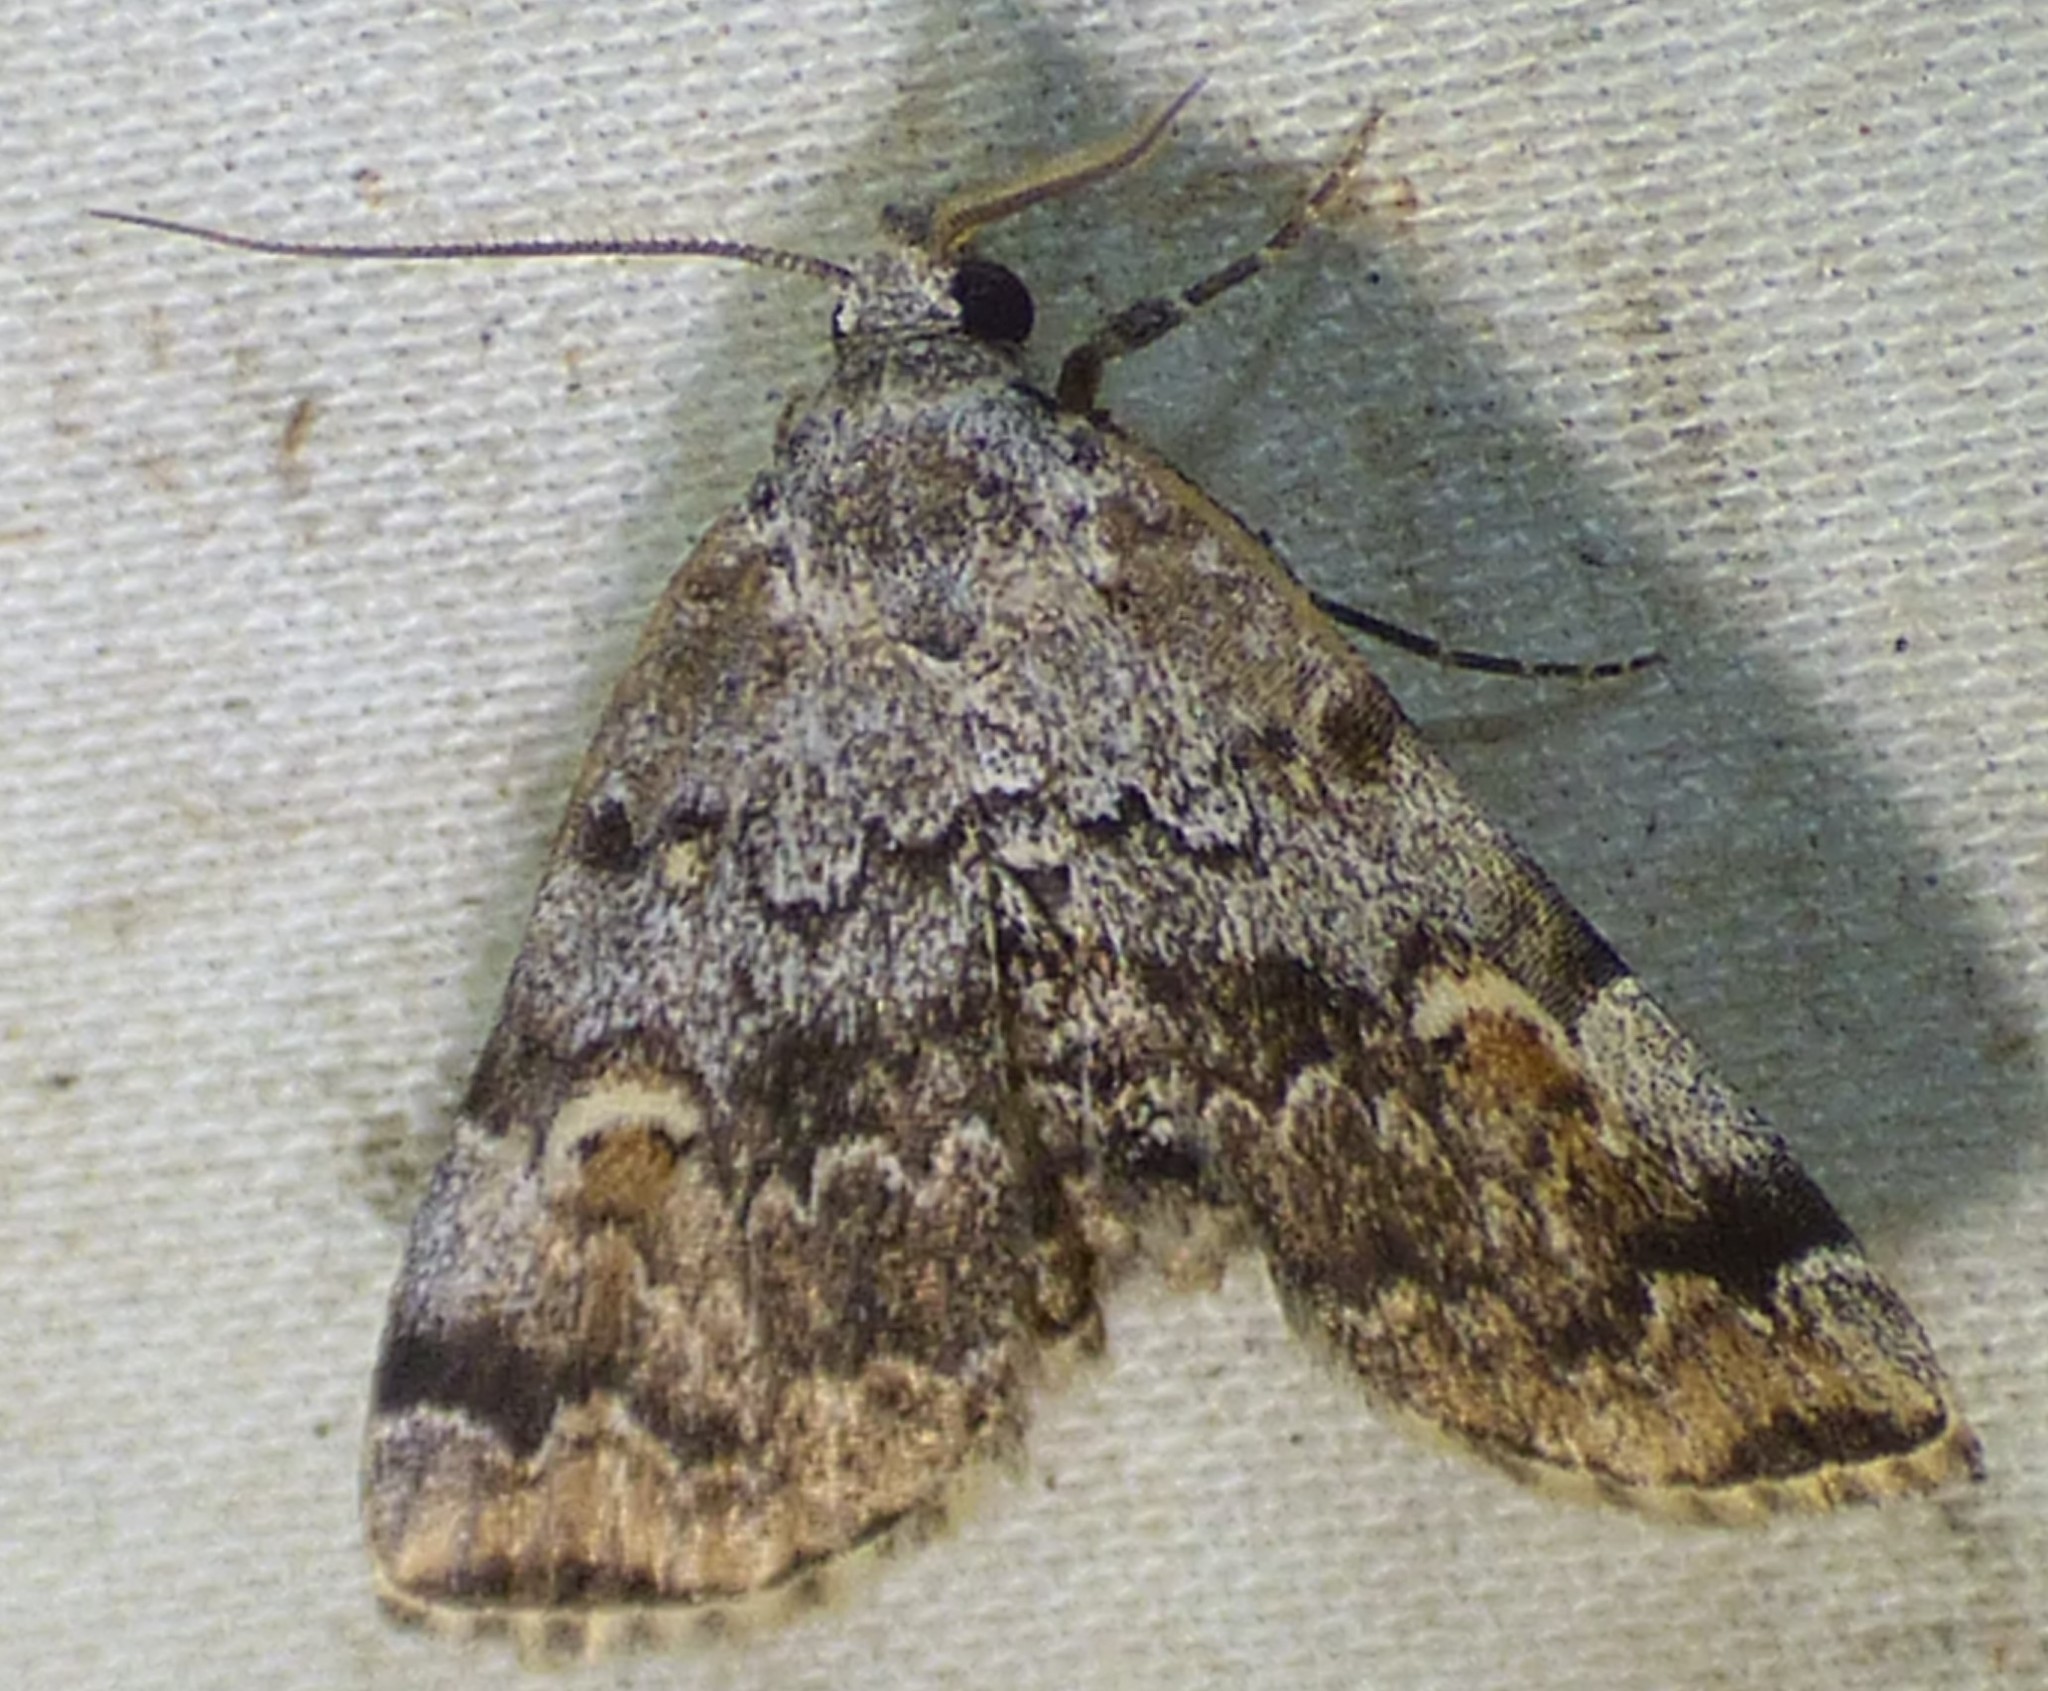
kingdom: Animalia
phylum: Arthropoda
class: Insecta
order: Lepidoptera
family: Erebidae
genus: Idia
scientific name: Idia americalis
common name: American idia moth
